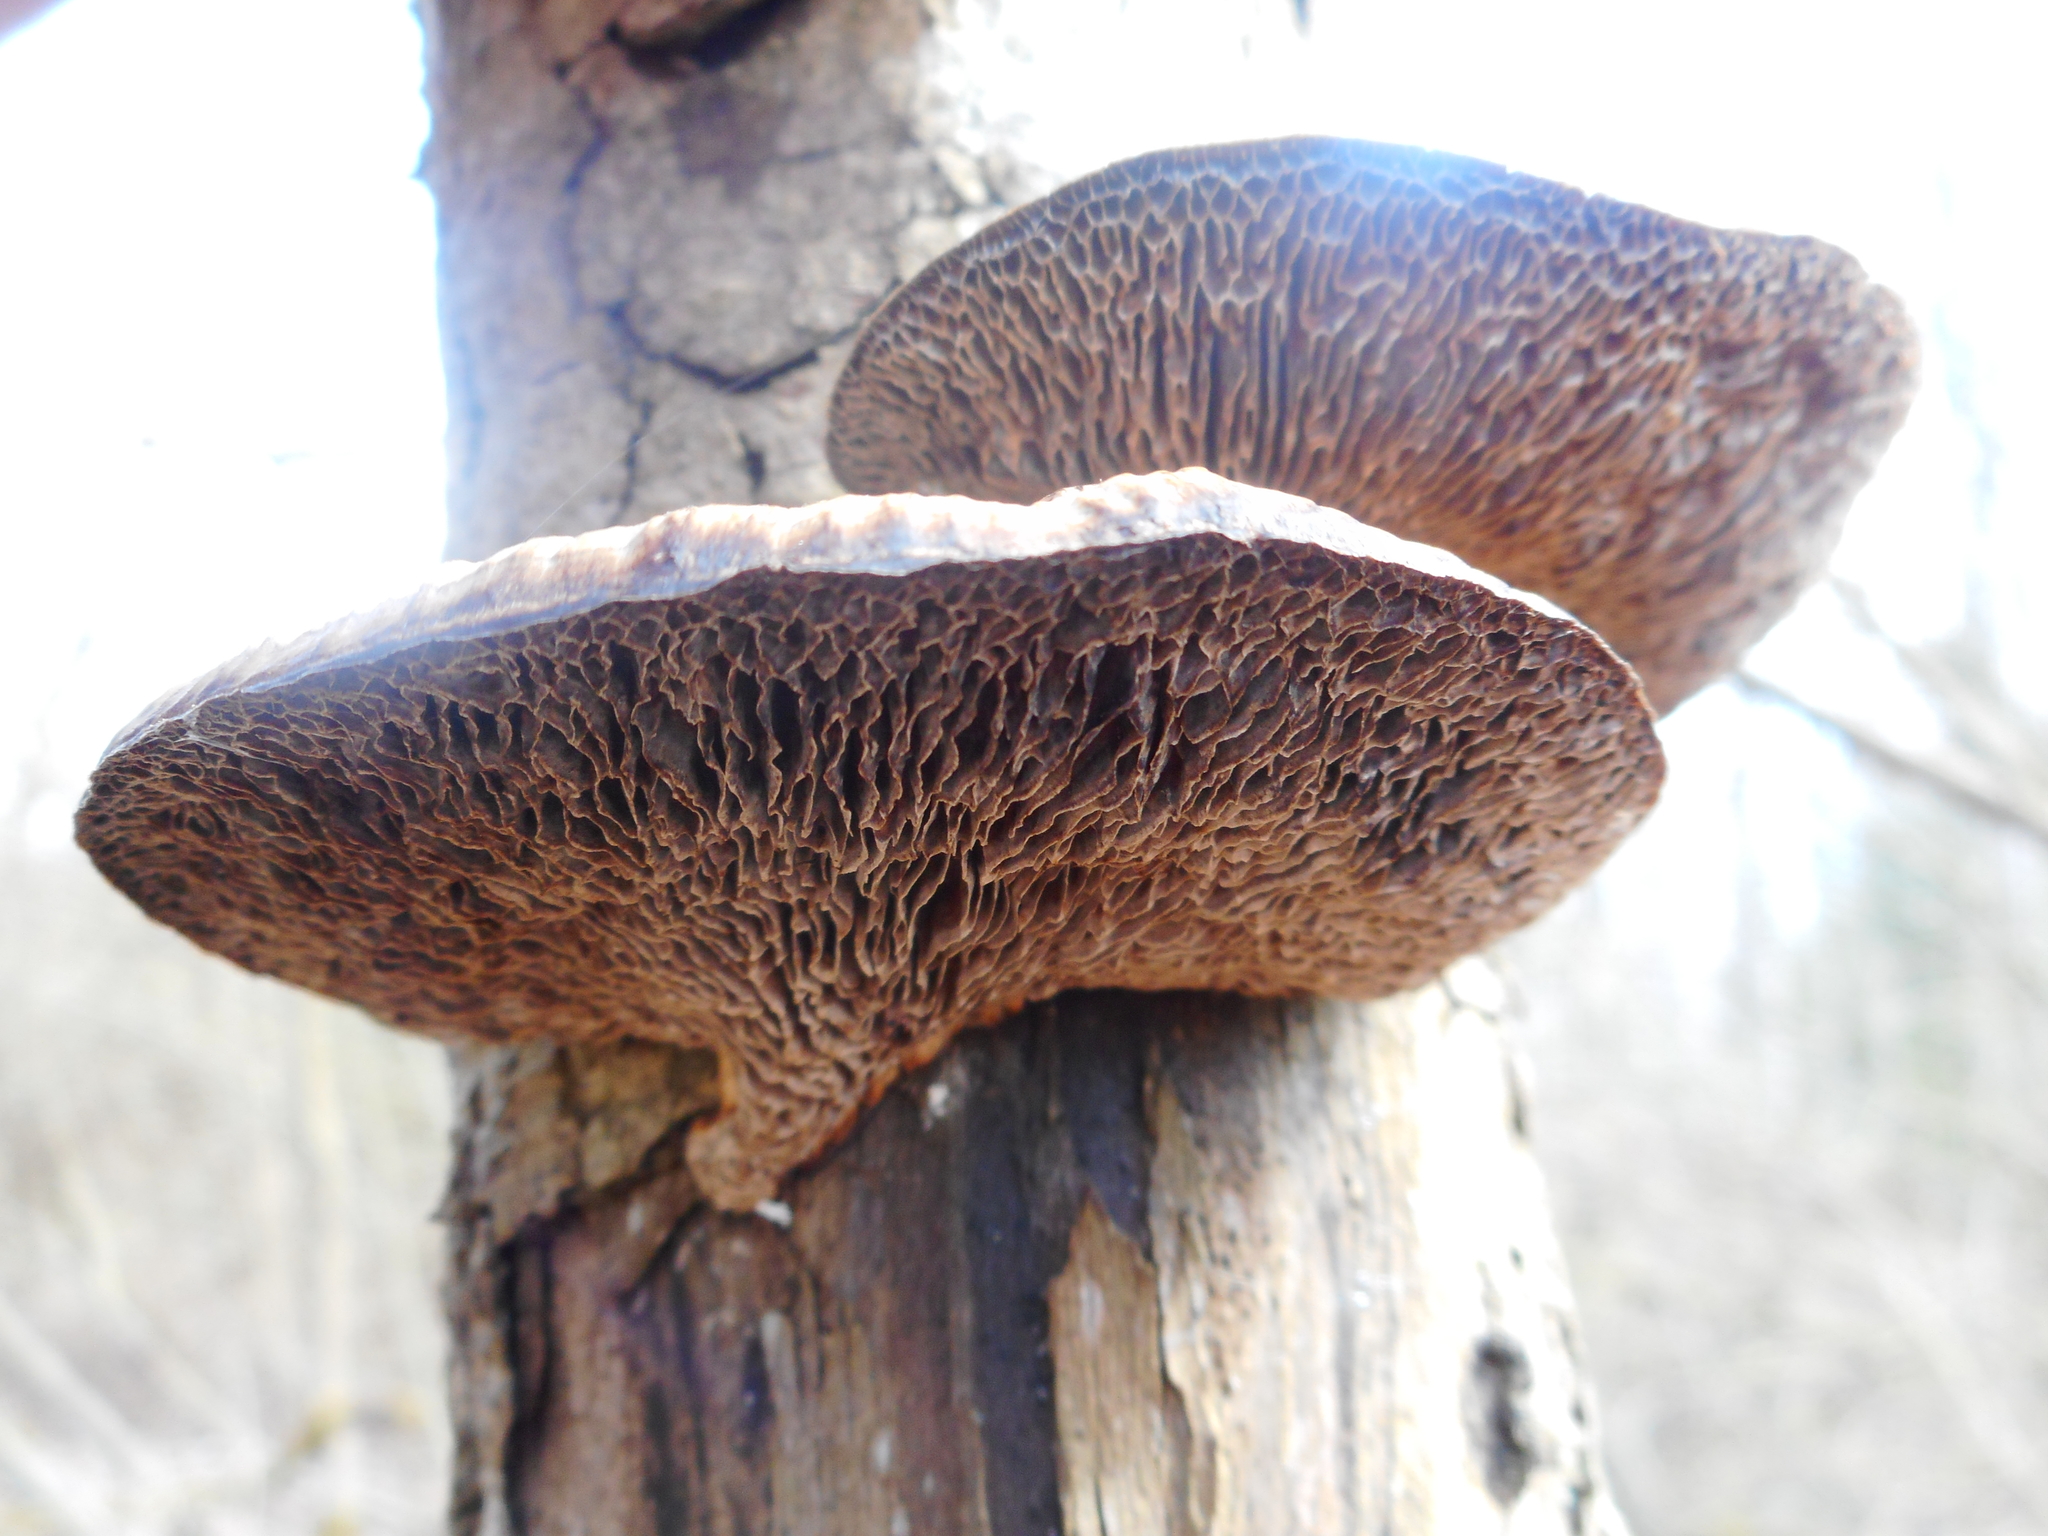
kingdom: Fungi
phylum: Basidiomycota
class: Agaricomycetes
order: Polyporales
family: Polyporaceae
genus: Daedaleopsis
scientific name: Daedaleopsis confragosa
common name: Blushing bracket
